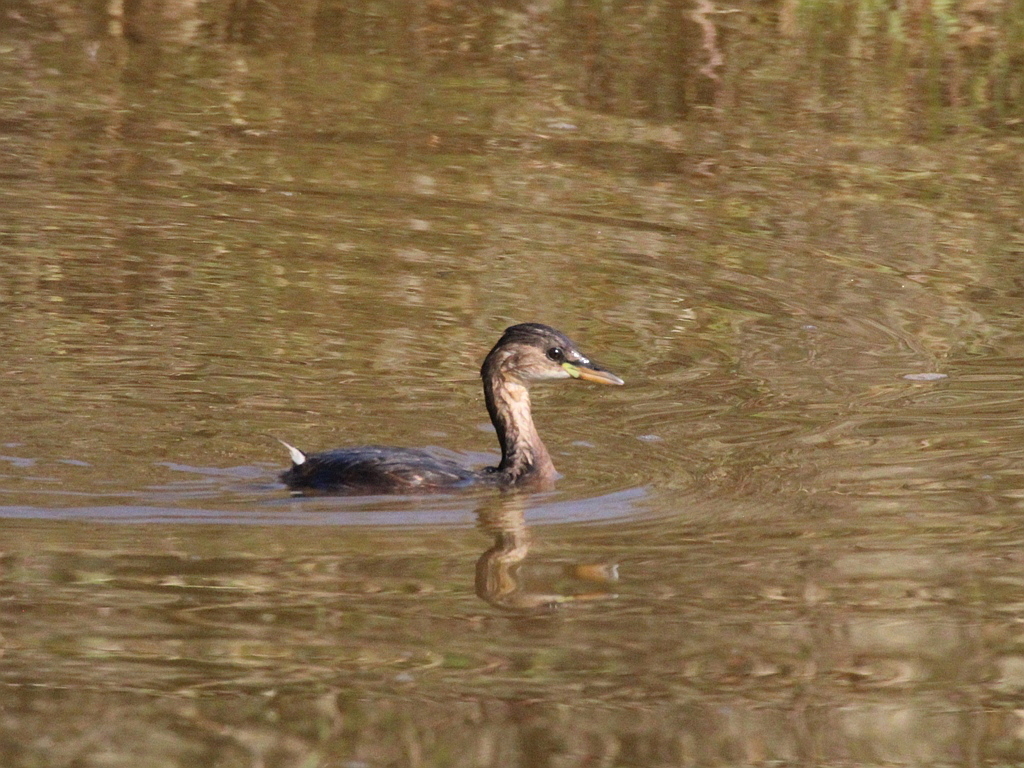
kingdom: Animalia
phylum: Chordata
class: Aves
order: Podicipediformes
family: Podicipedidae
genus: Tachybaptus
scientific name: Tachybaptus ruficollis
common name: Little grebe
